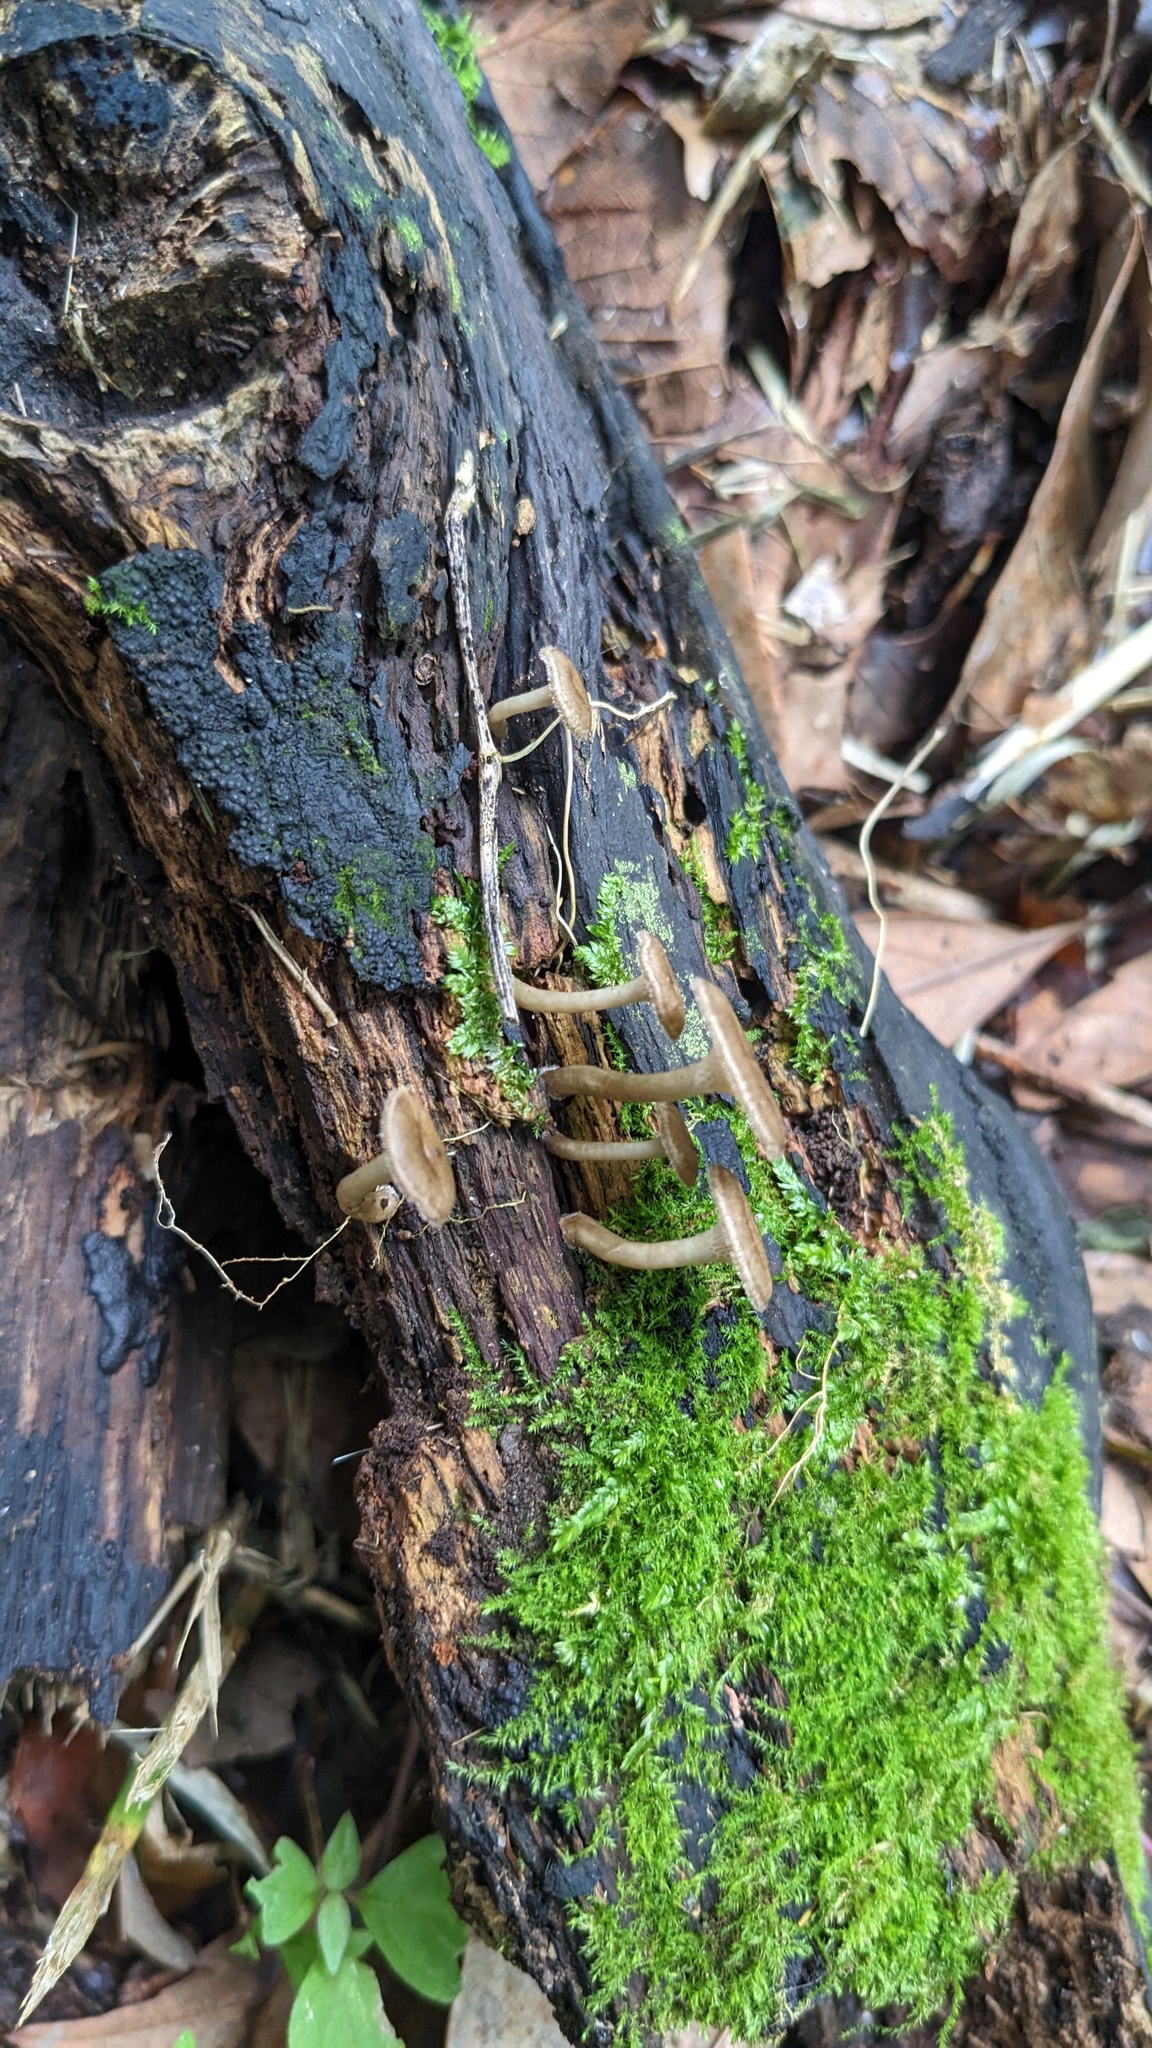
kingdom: Fungi
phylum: Basidiomycota
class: Agaricomycetes
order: Polyporales
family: Polyporaceae
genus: Lentinus
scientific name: Lentinus arcularius
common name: Spring polypore
